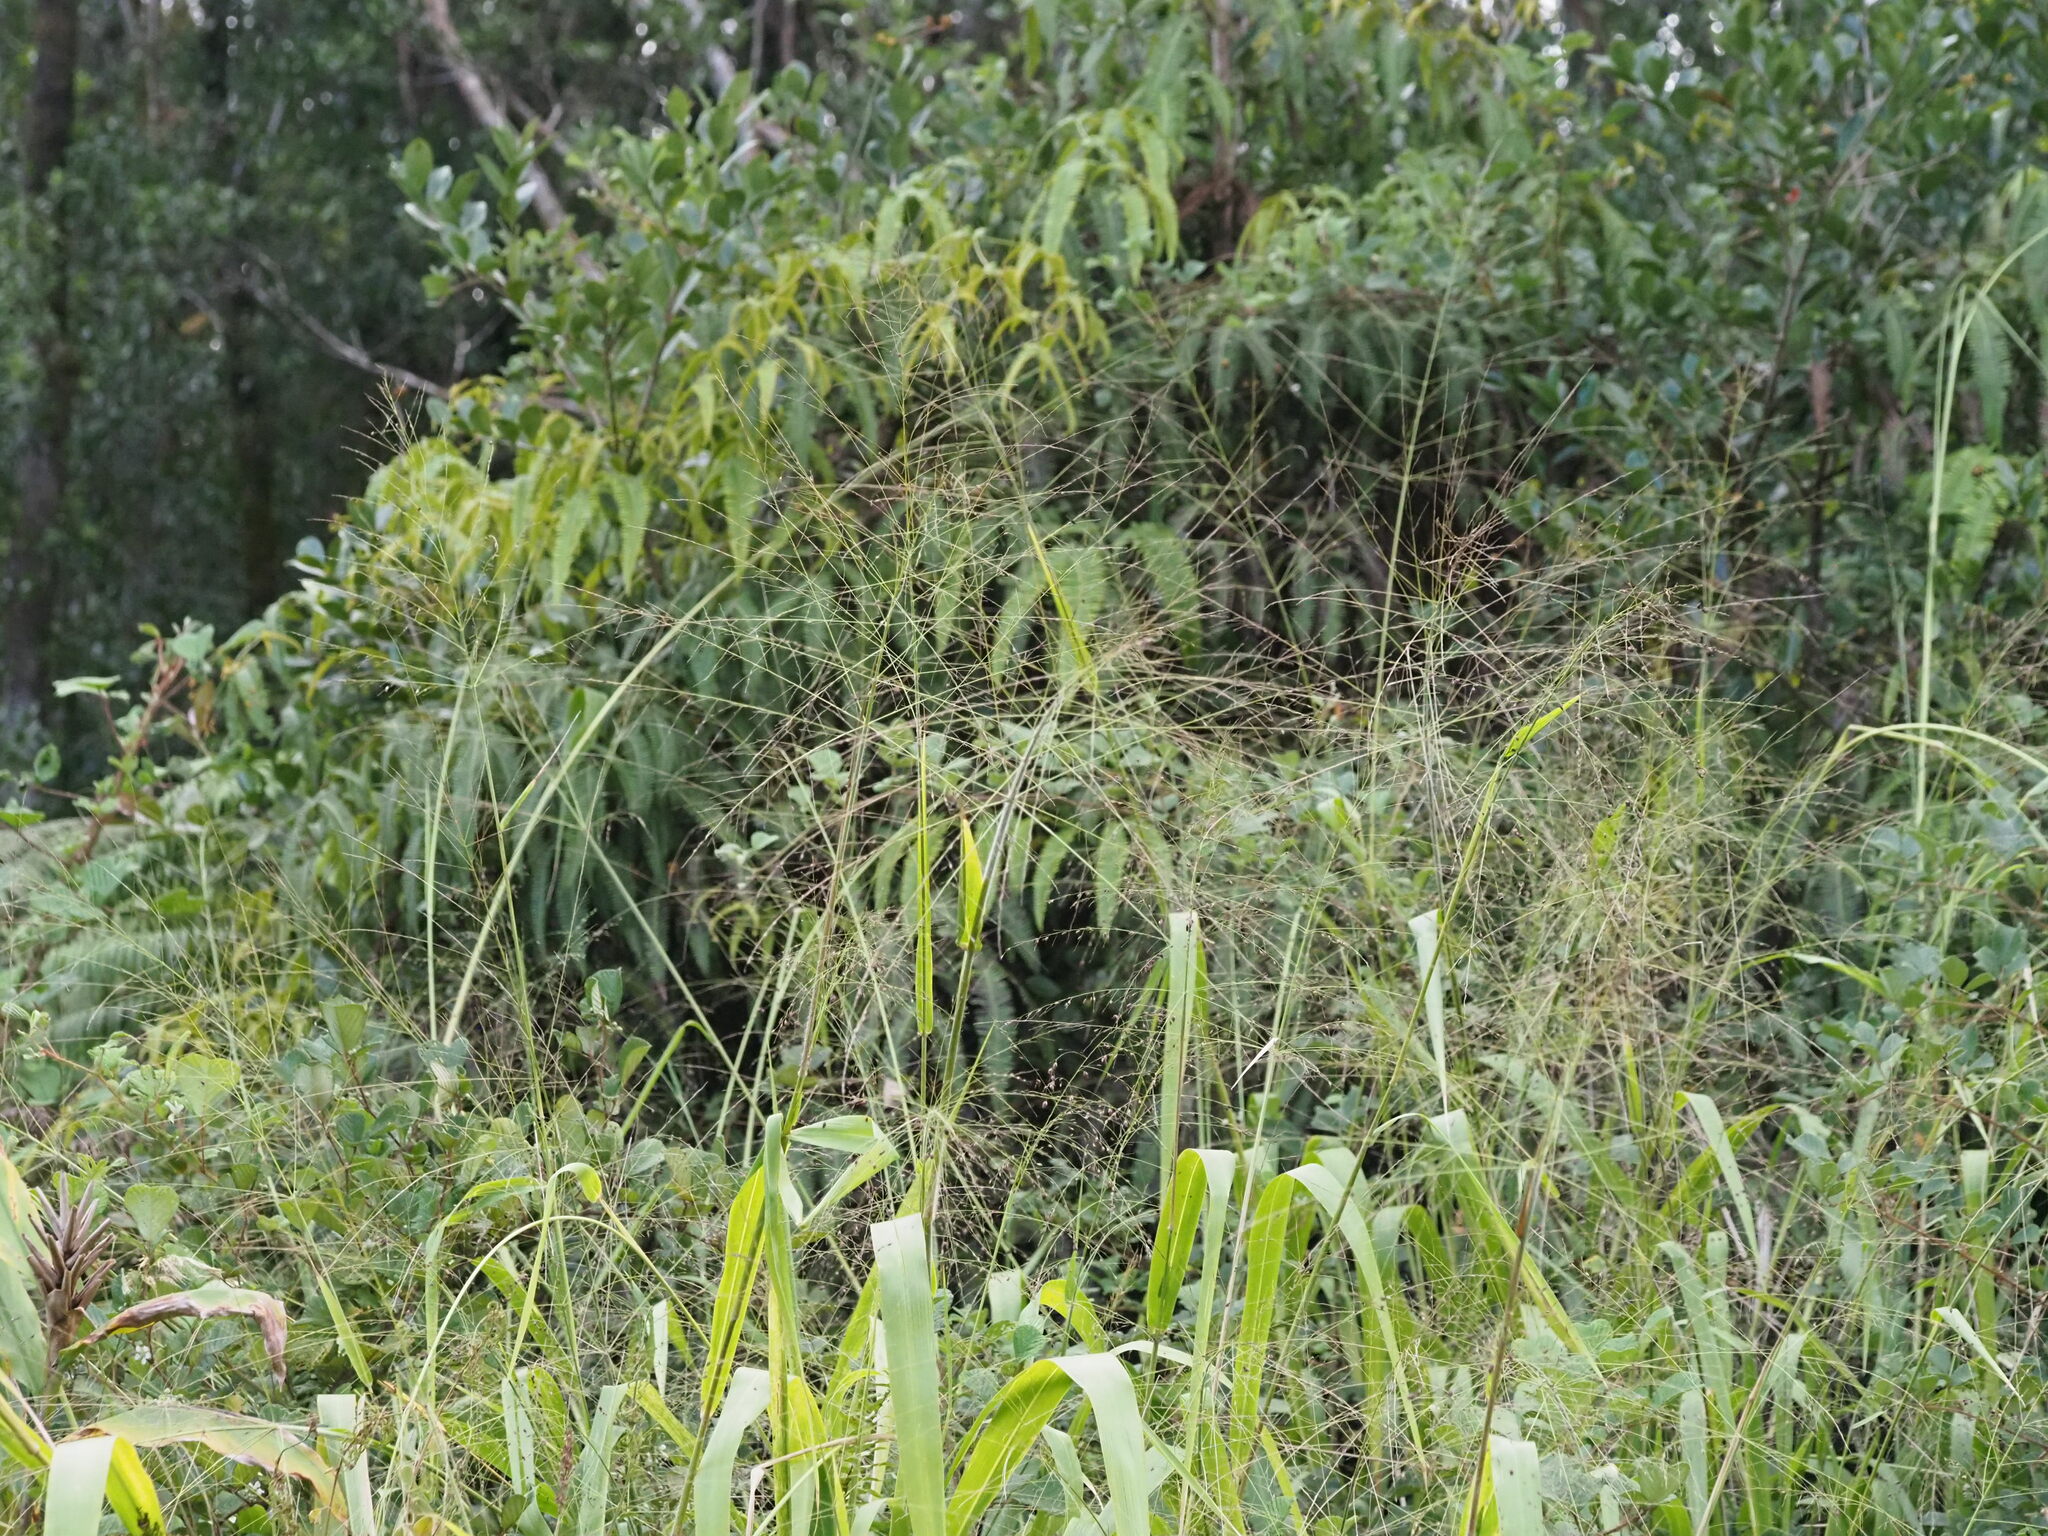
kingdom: Plantae
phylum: Tracheophyta
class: Liliopsida
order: Poales
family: Poaceae
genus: Megathyrsus
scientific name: Megathyrsus maximus
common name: Guineagrass
